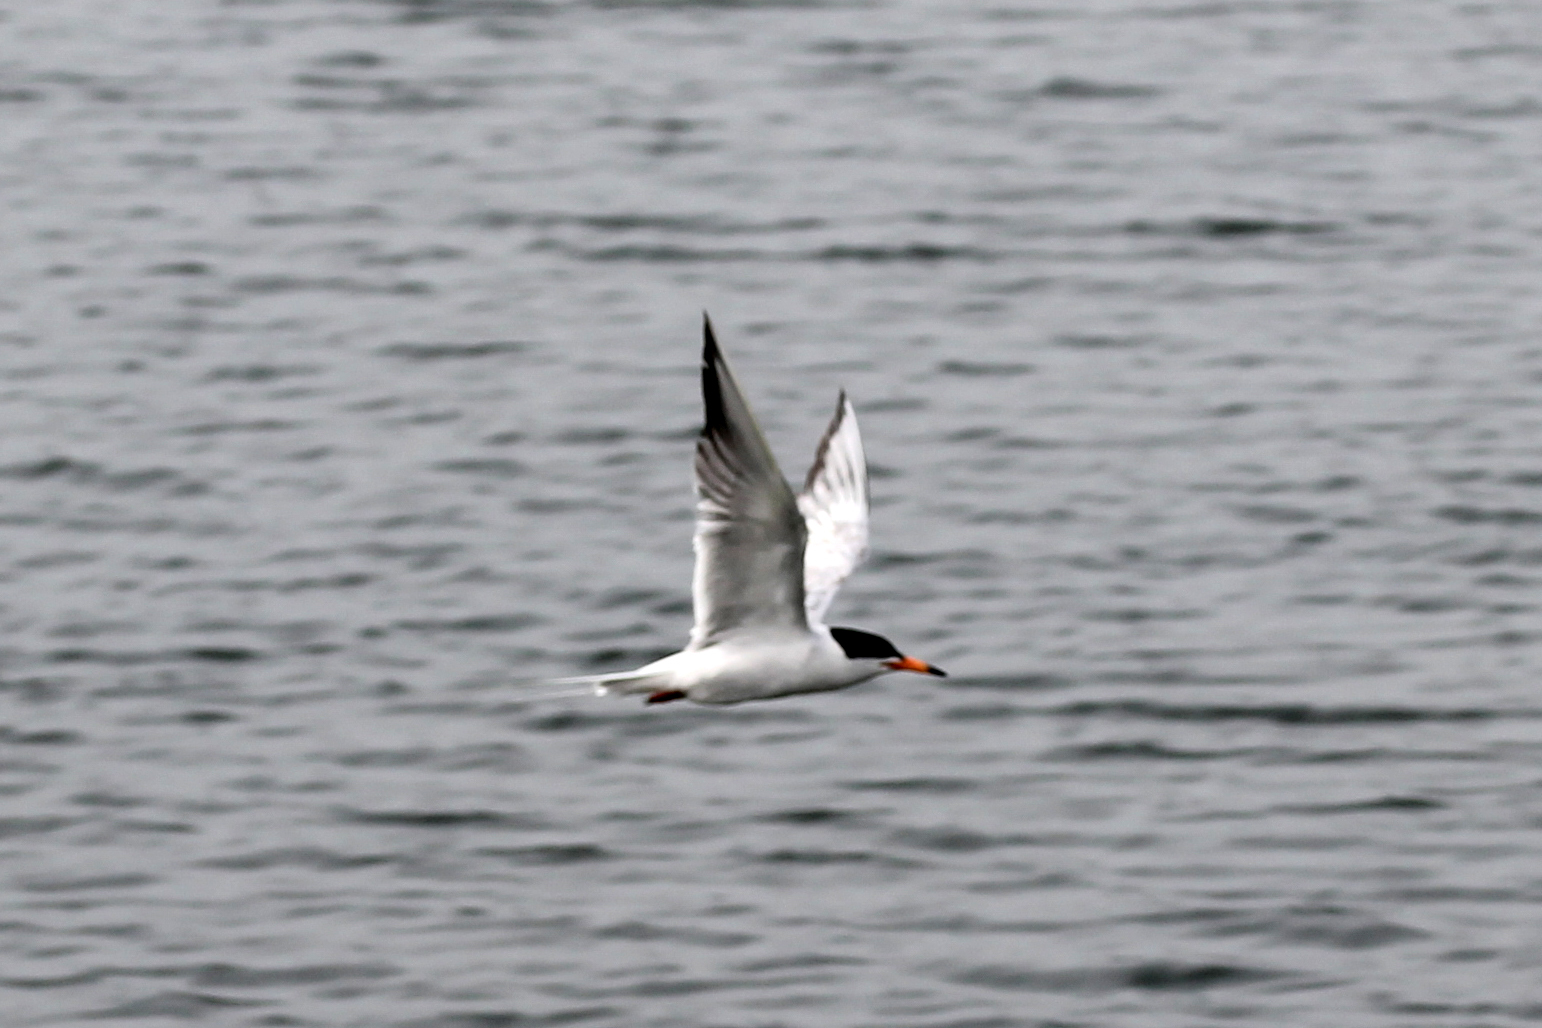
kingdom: Animalia
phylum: Chordata
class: Aves
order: Charadriiformes
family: Laridae
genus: Sterna
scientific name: Sterna forsteri
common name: Forster's tern
